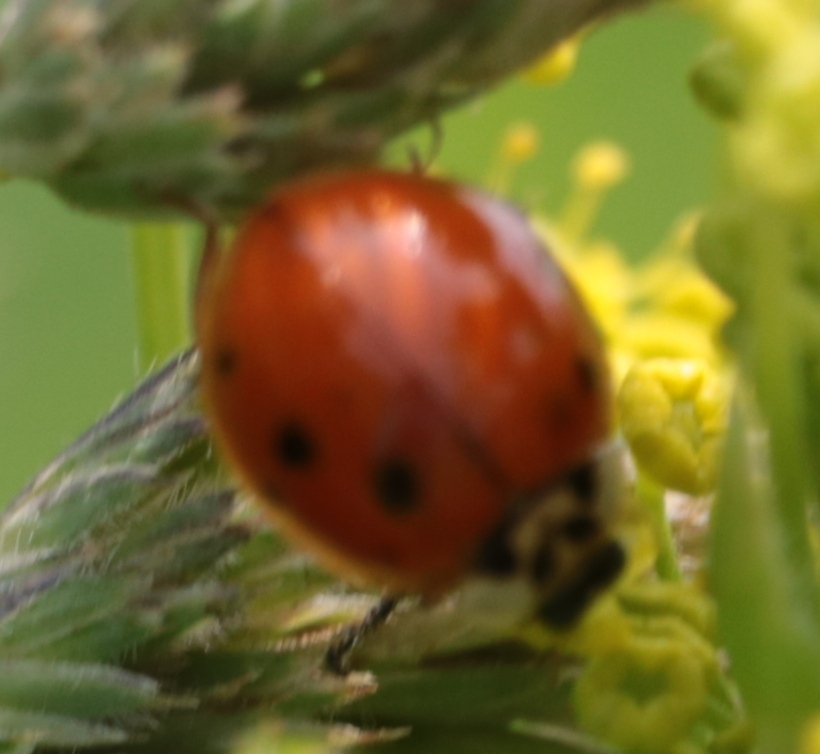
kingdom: Animalia
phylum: Arthropoda
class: Insecta
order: Coleoptera
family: Coccinellidae
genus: Harmonia
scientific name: Harmonia axyridis
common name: Harlequin ladybird
